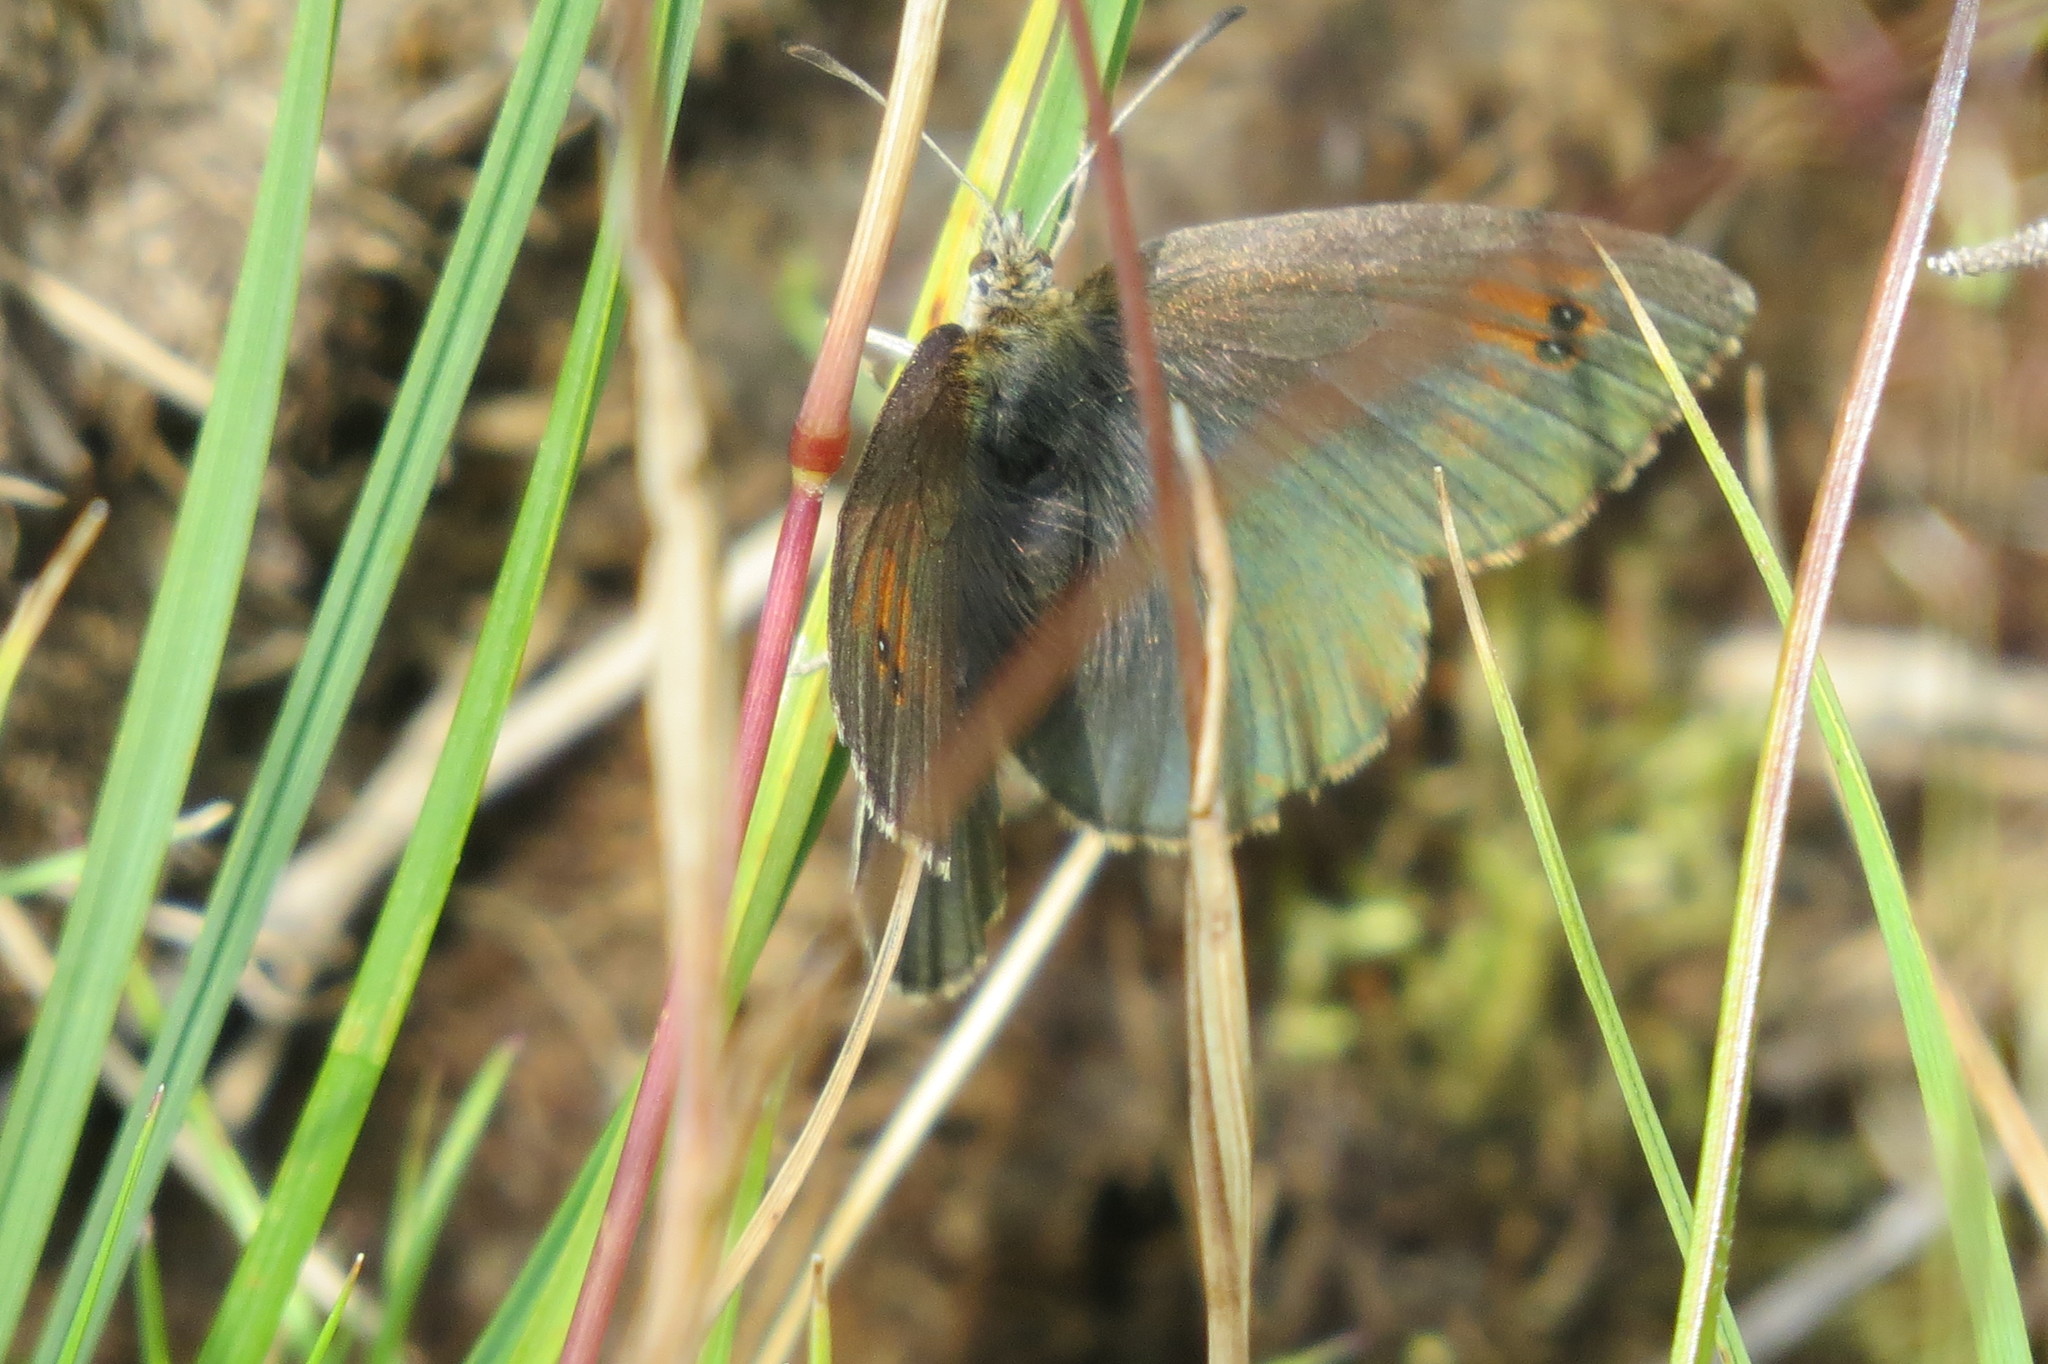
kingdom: Animalia
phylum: Arthropoda
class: Insecta
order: Lepidoptera
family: Nymphalidae
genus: Erebia
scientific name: Erebia tyndarus
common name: Swiss brassy ringlet
